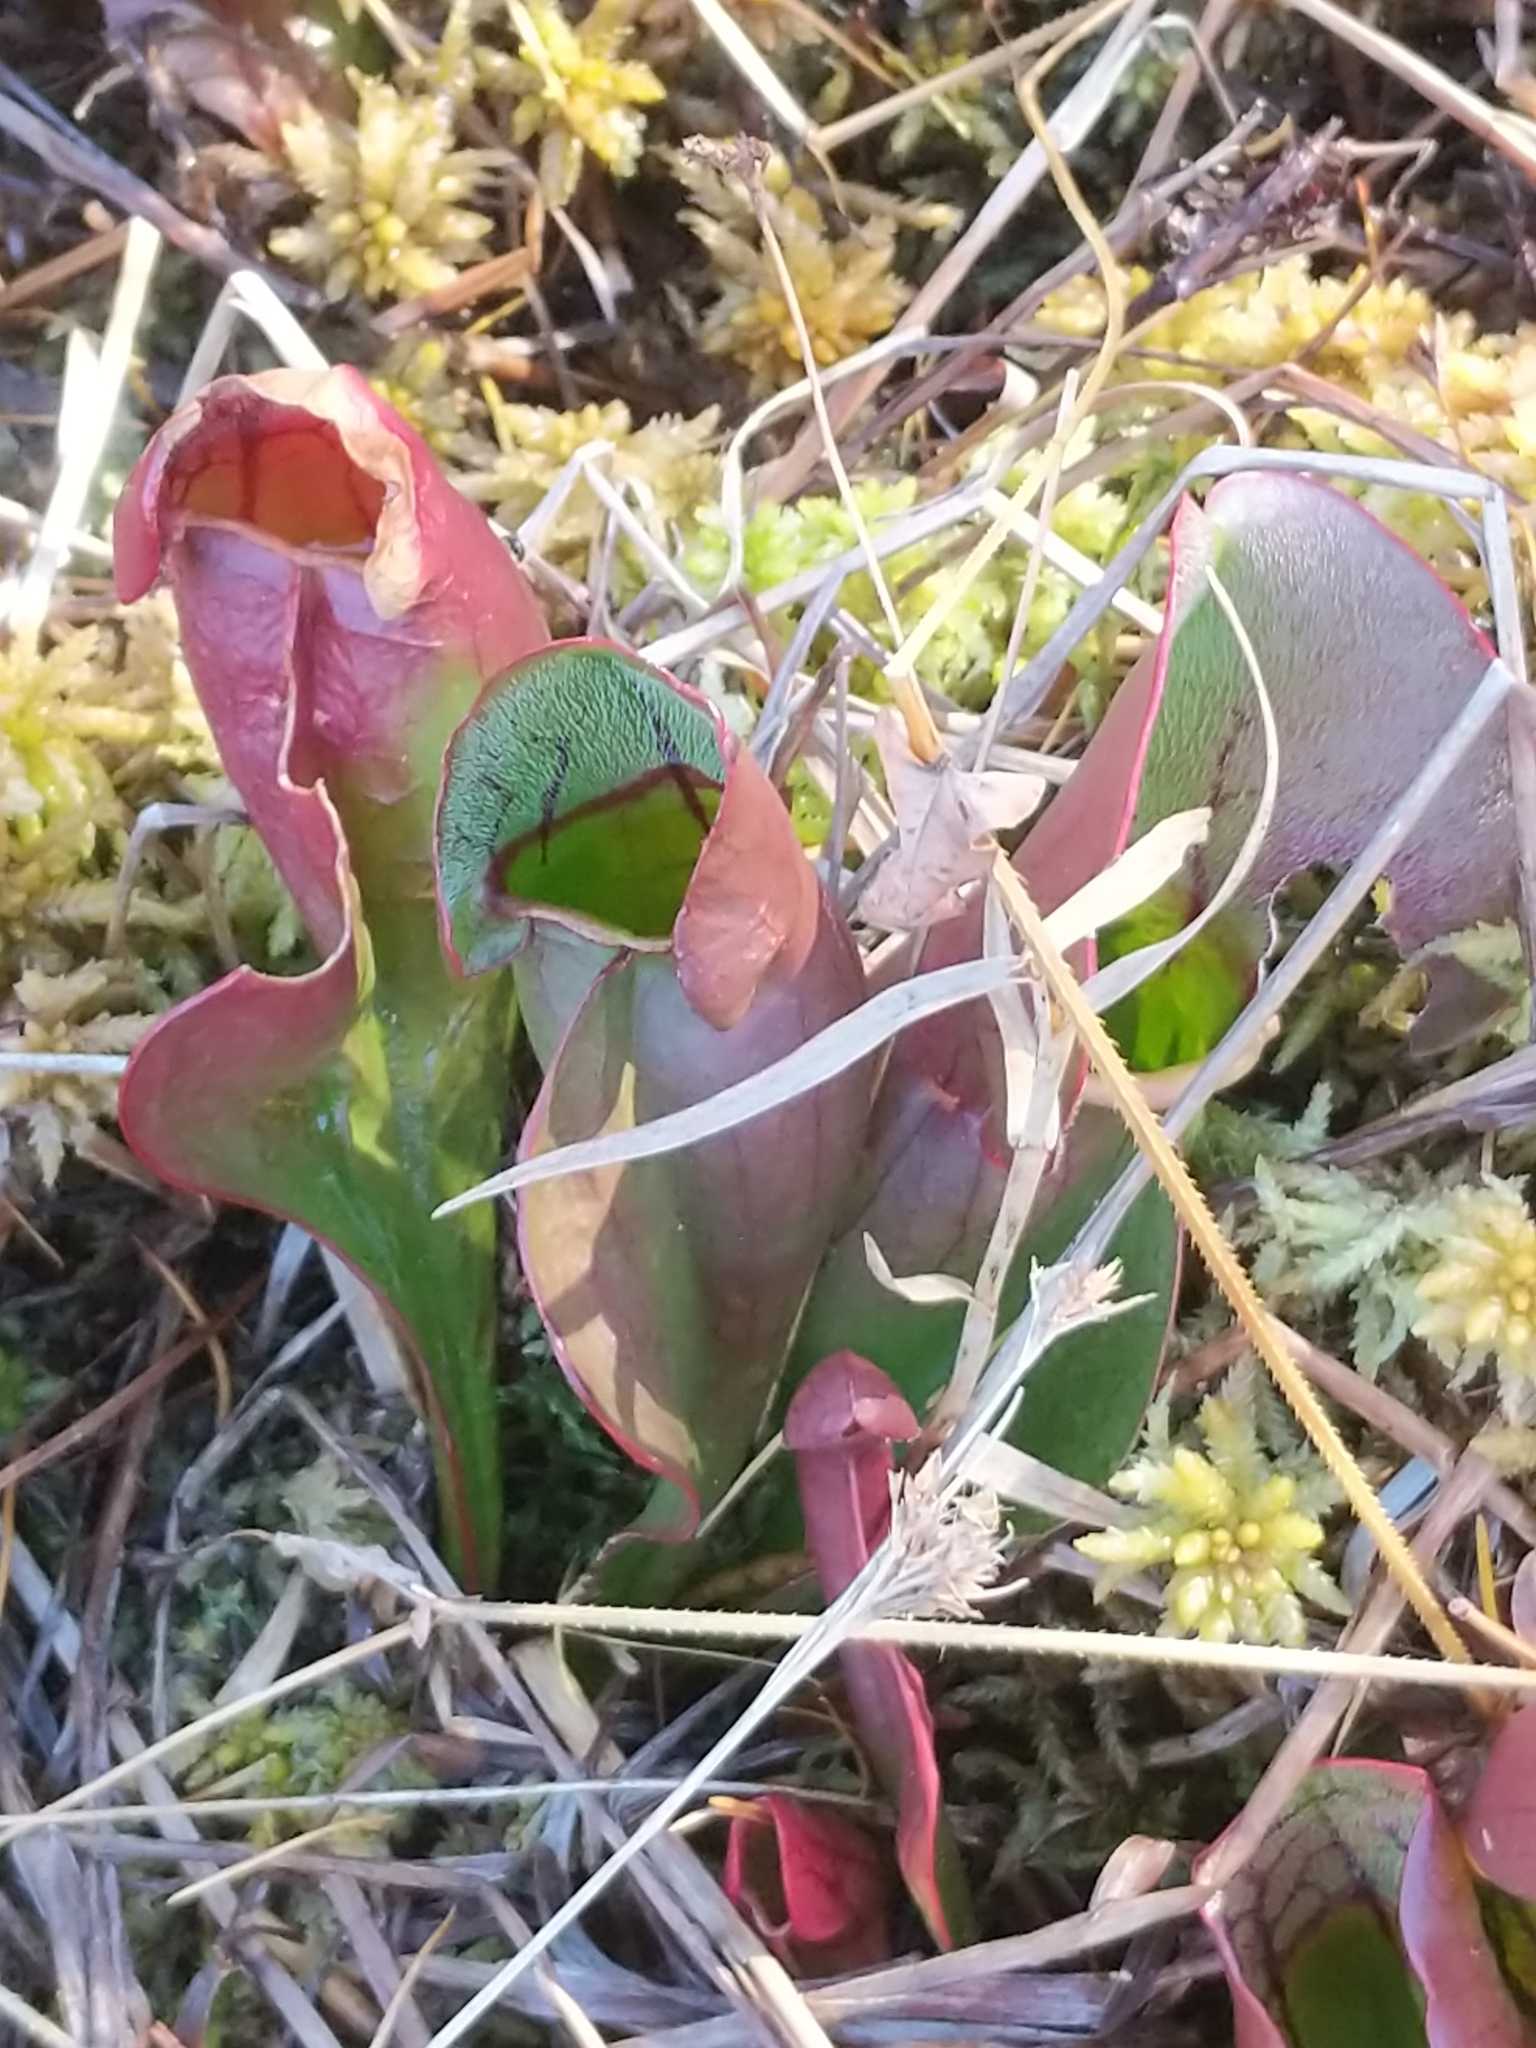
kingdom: Plantae
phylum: Tracheophyta
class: Magnoliopsida
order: Ericales
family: Sarraceniaceae
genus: Sarracenia
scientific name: Sarracenia purpurea
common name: Pitcherplant
